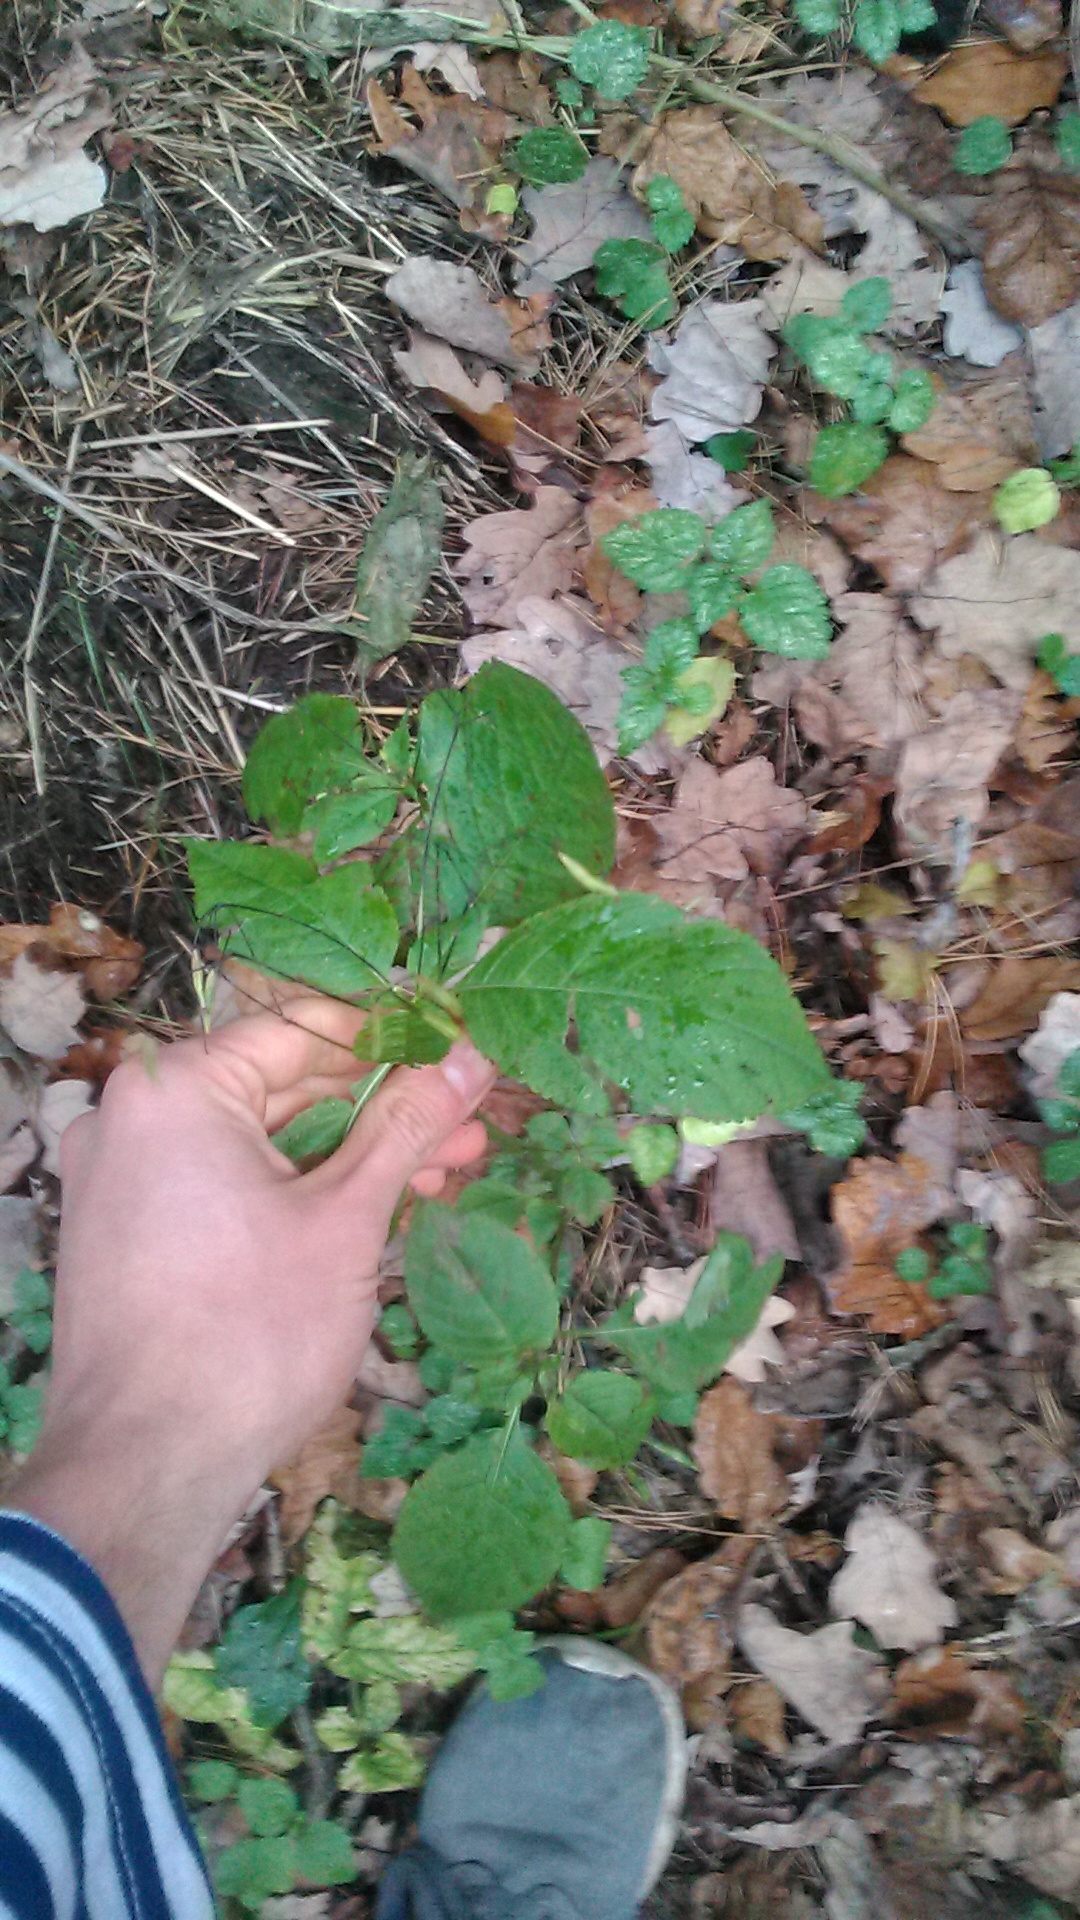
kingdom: Plantae
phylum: Tracheophyta
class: Magnoliopsida
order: Ericales
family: Balsaminaceae
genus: Impatiens
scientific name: Impatiens parviflora
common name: Small balsam
